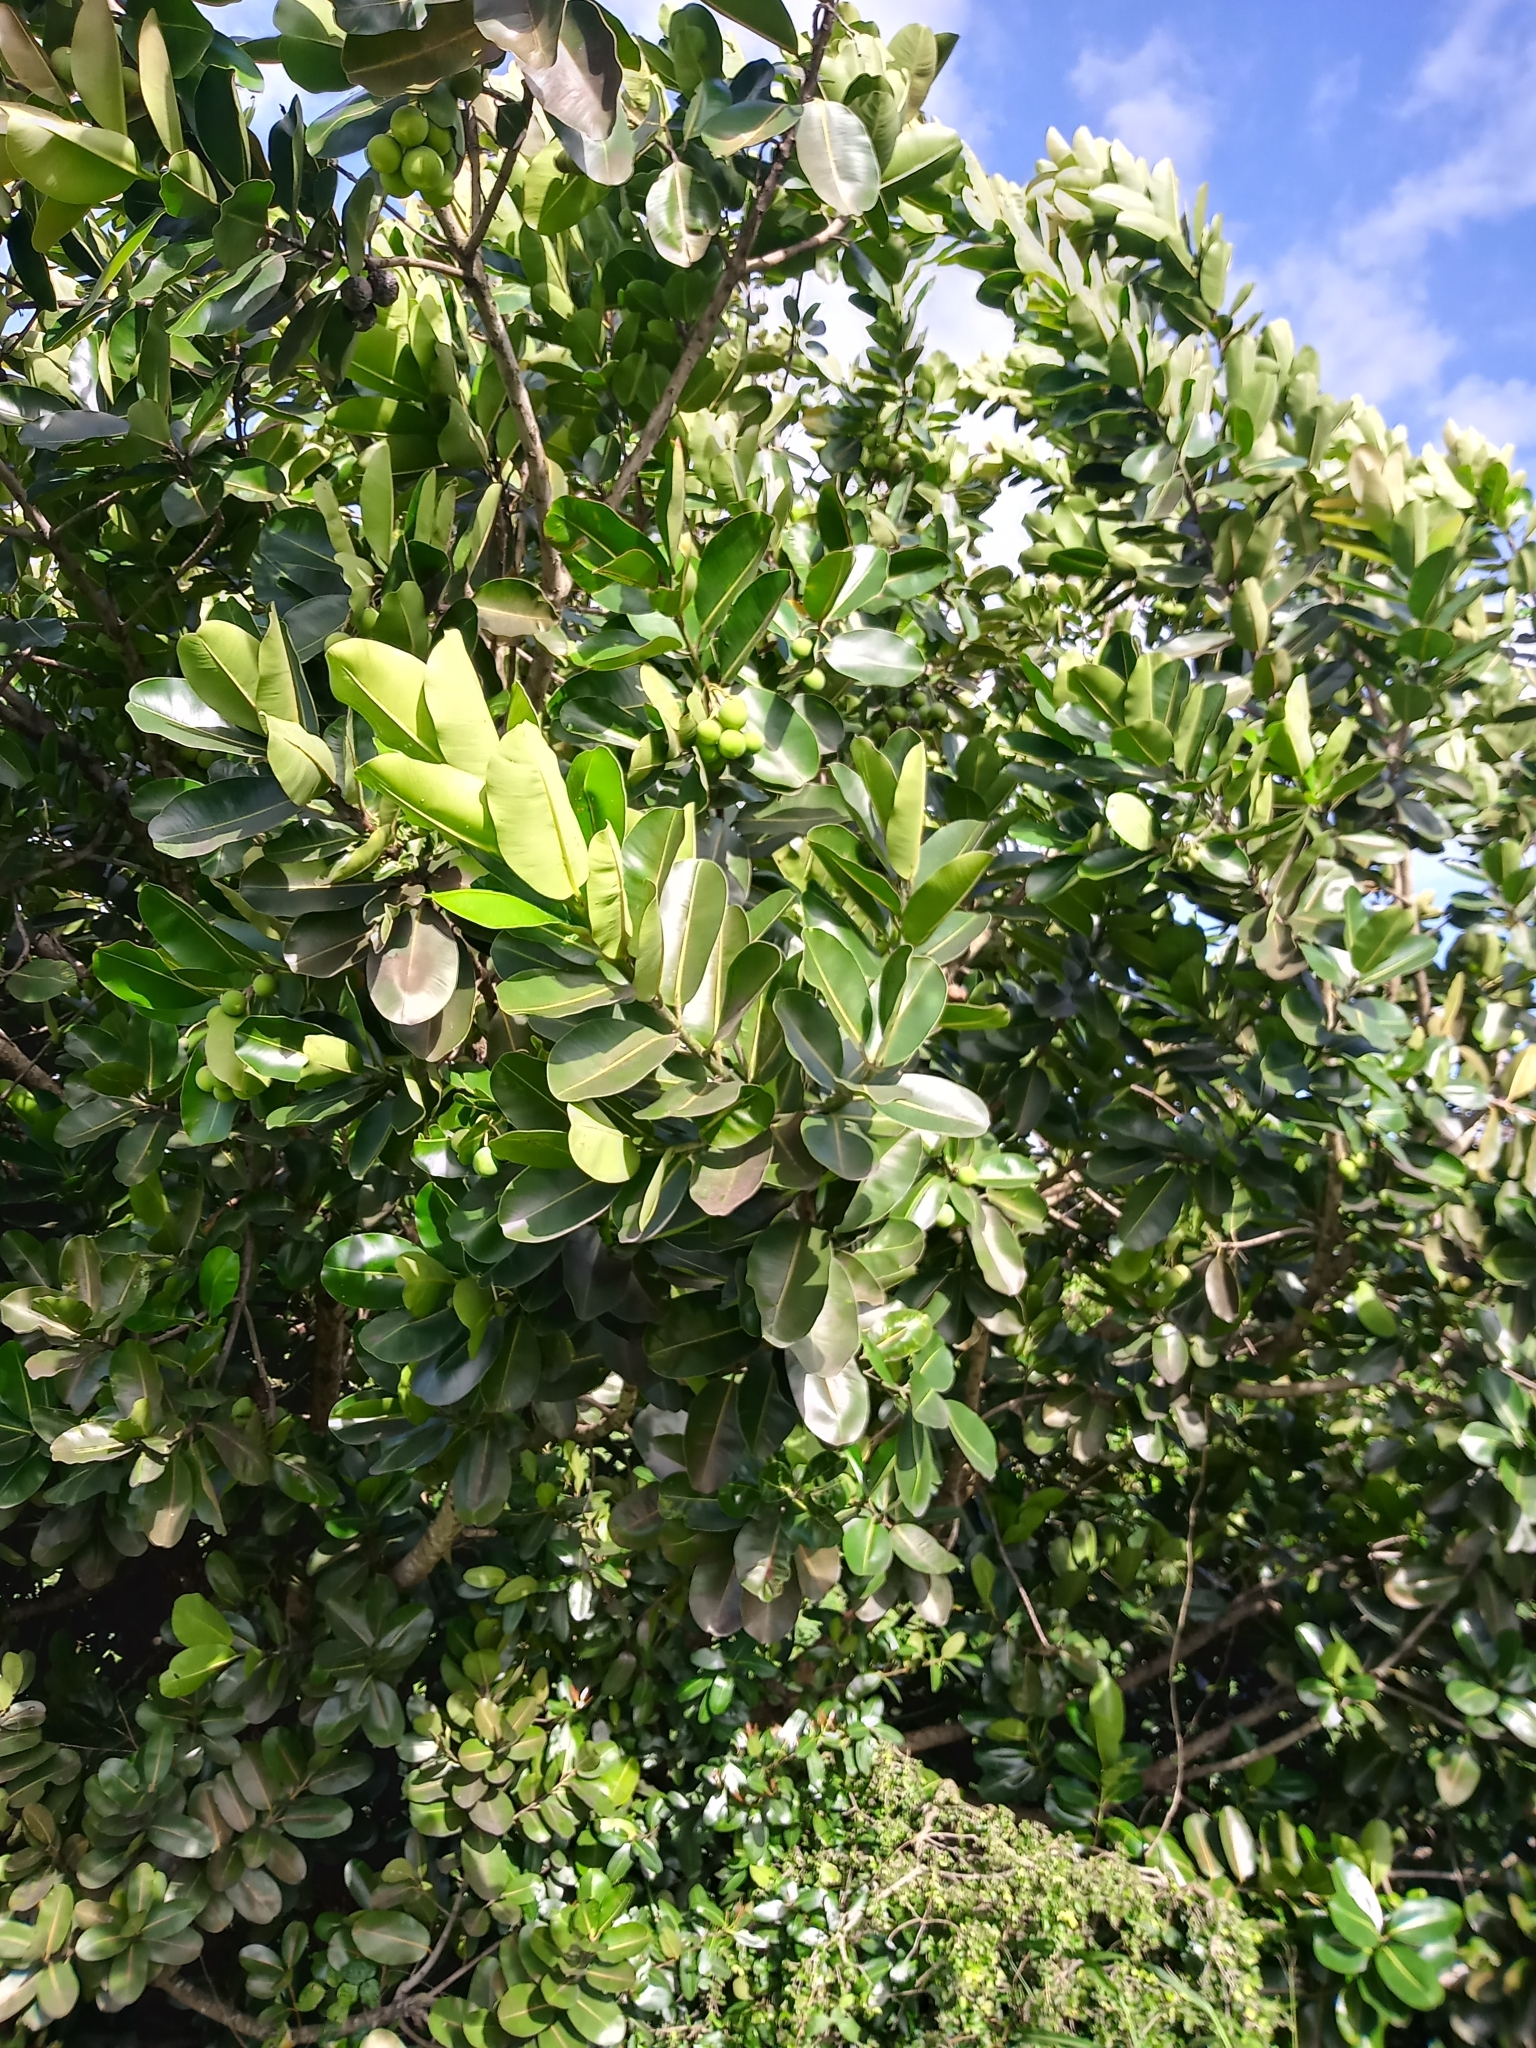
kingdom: Plantae
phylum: Tracheophyta
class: Magnoliopsida
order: Malpighiales
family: Calophyllaceae
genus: Calophyllum
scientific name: Calophyllum inophyllum
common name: Alexandrian laurel
